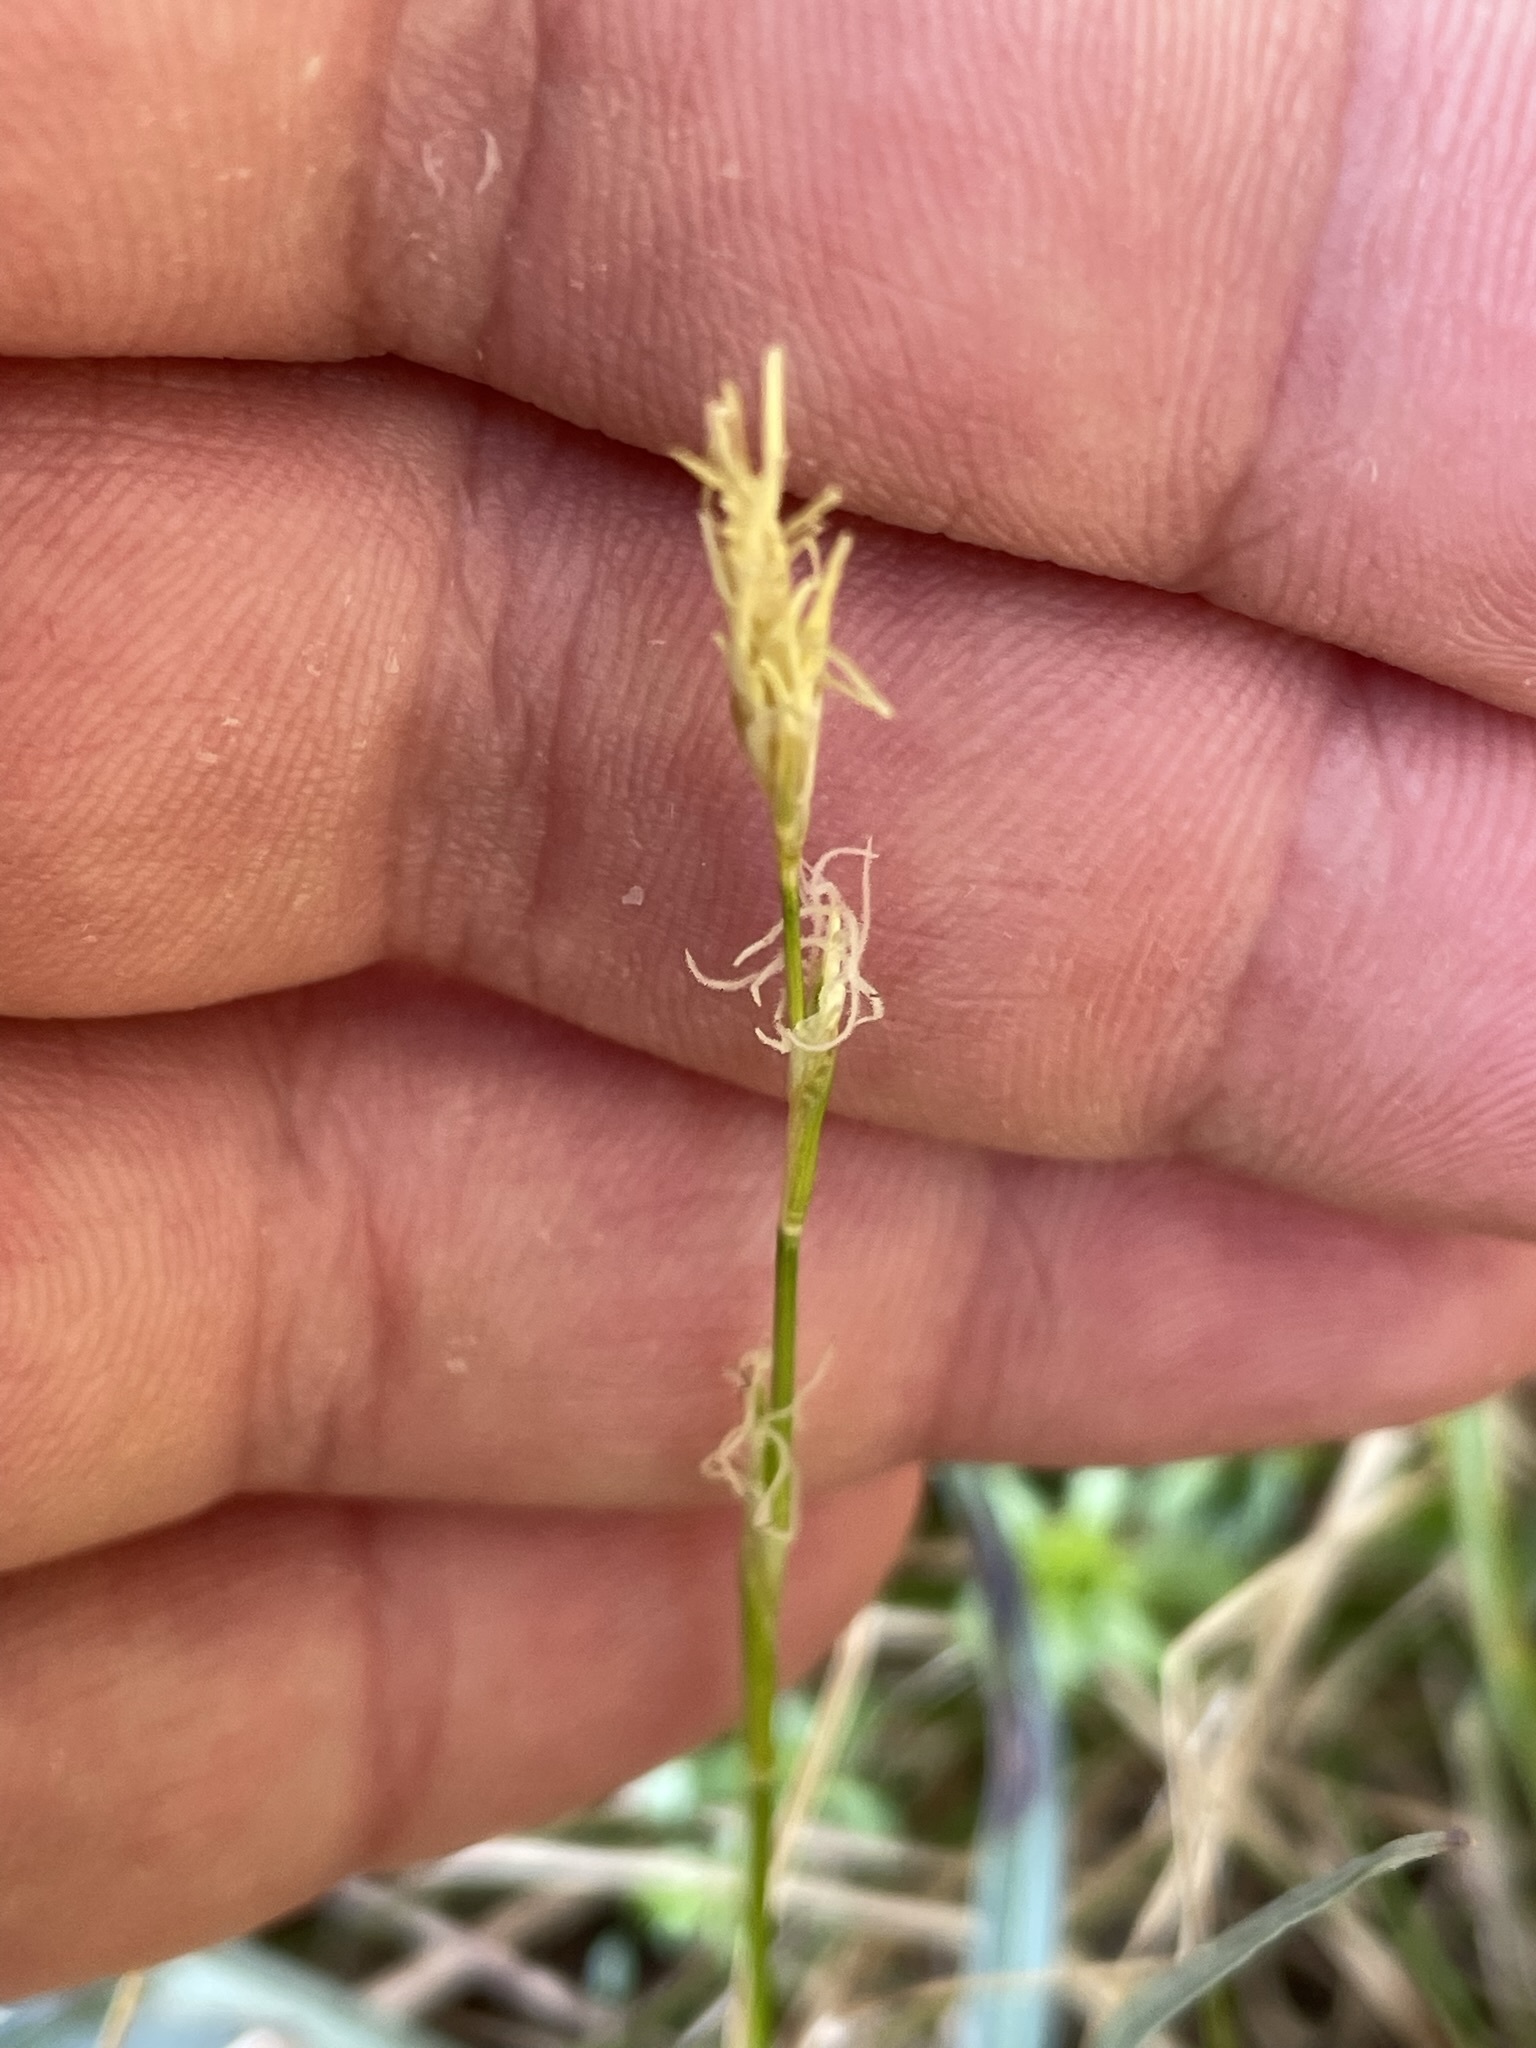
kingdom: Plantae
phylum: Tracheophyta
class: Liliopsida
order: Poales
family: Cyperaceae
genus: Carex
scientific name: Carex alba
